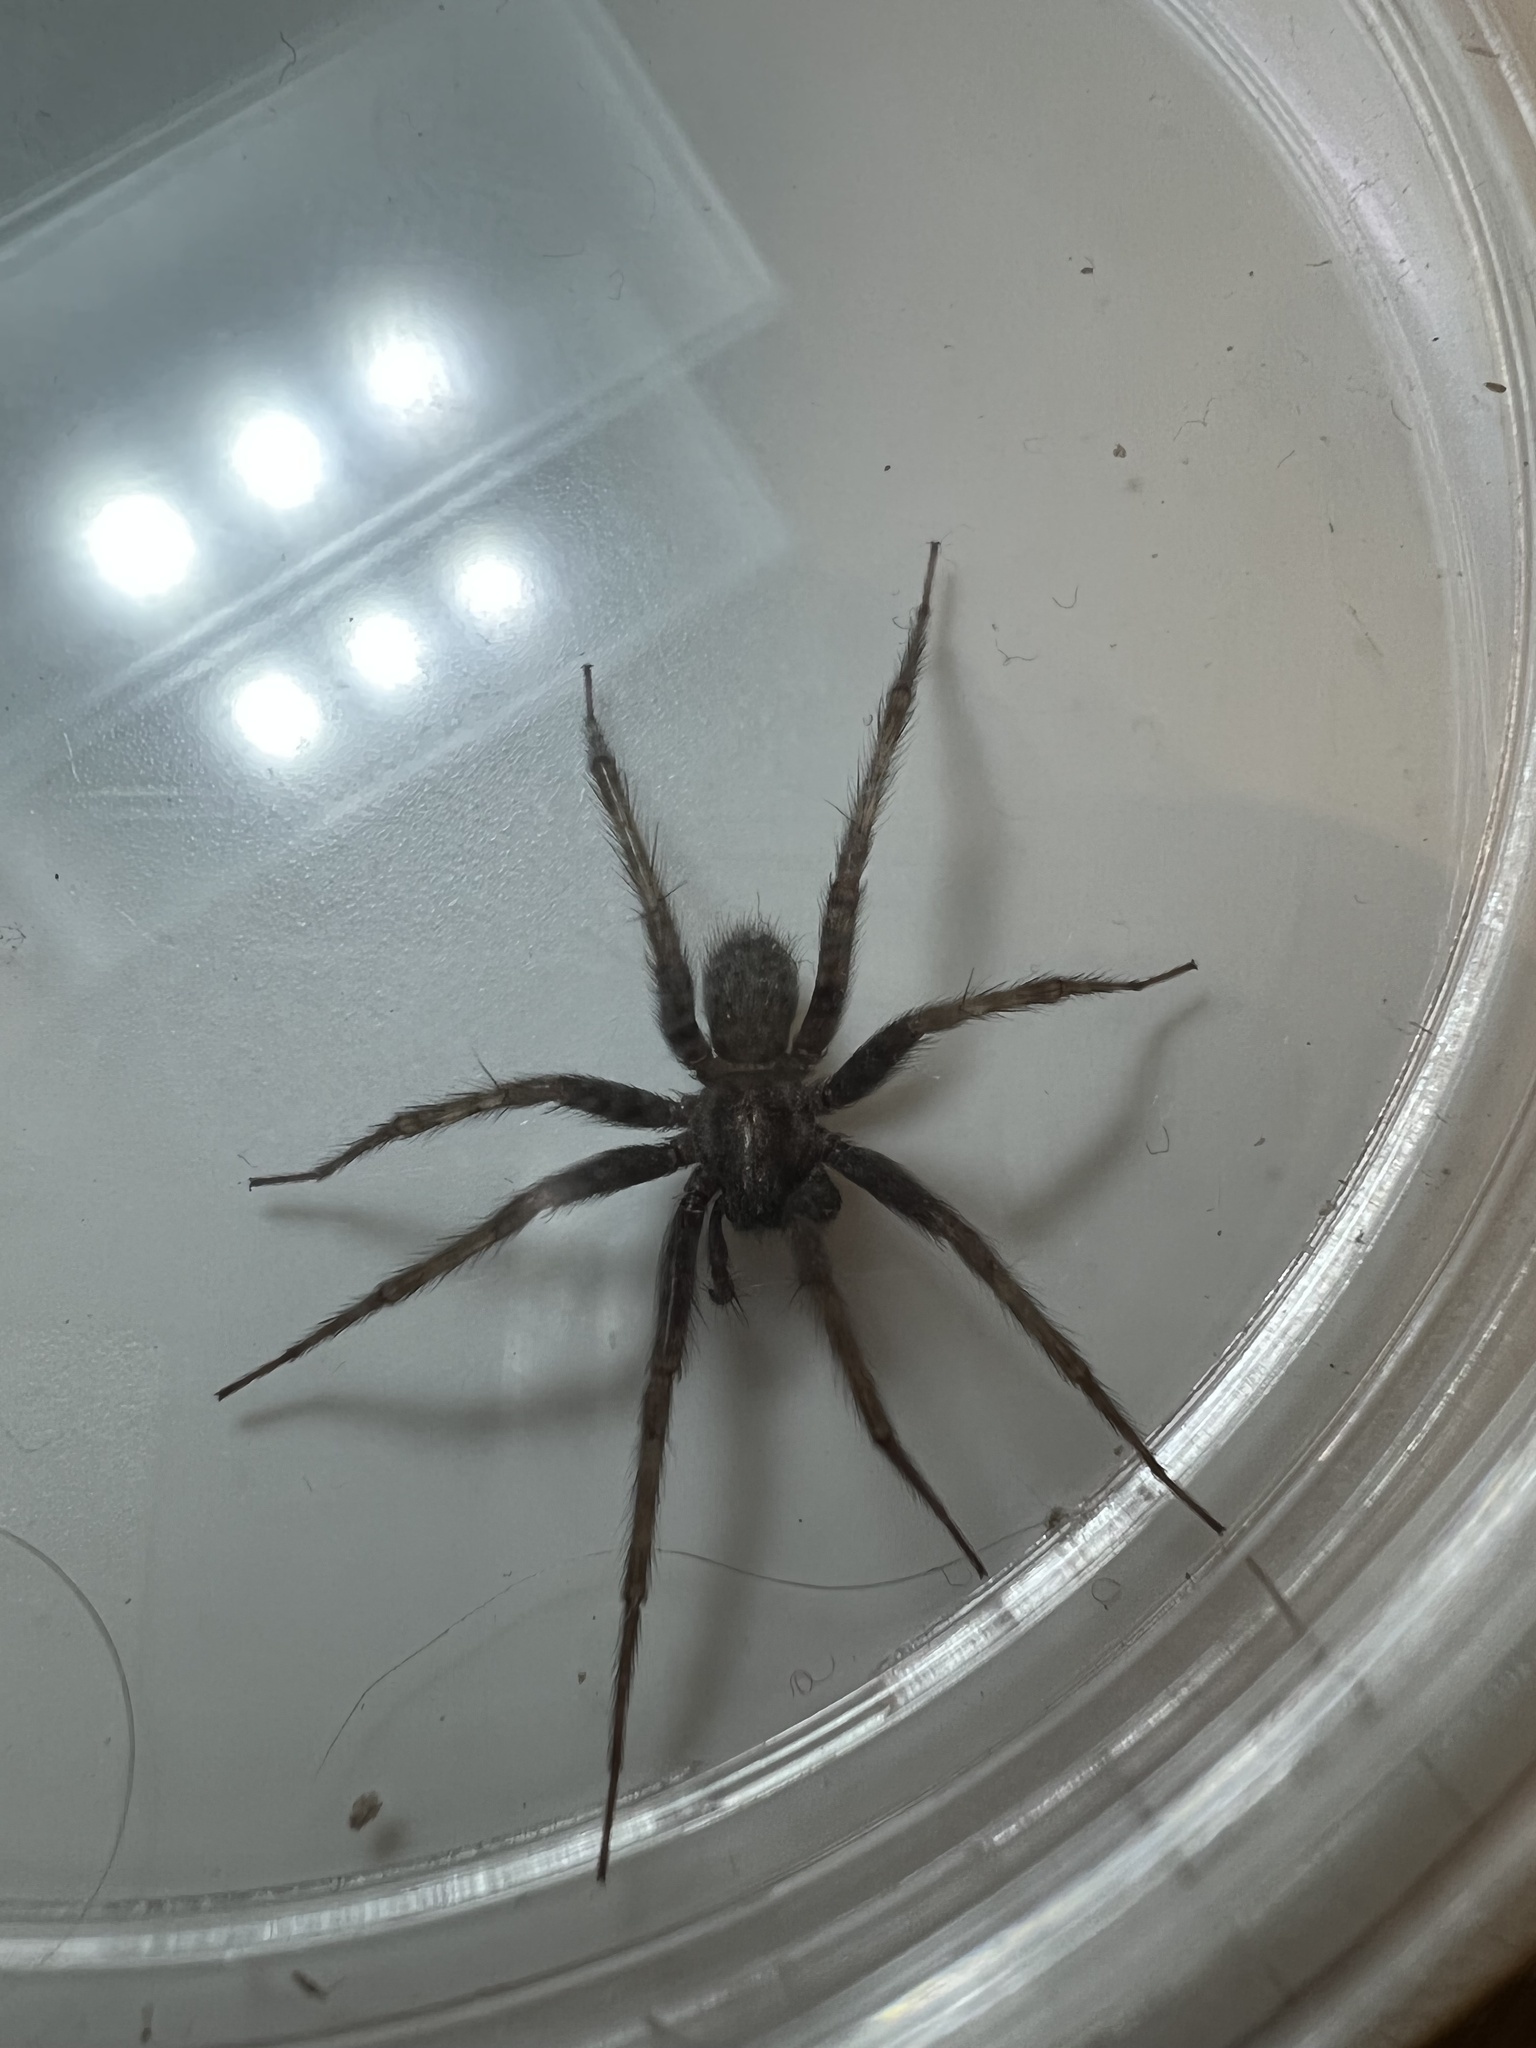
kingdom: Animalia
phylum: Arthropoda
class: Arachnida
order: Araneae
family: Agelenidae
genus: Tegenaria
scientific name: Tegenaria domestica
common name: Barn funnel weaver
